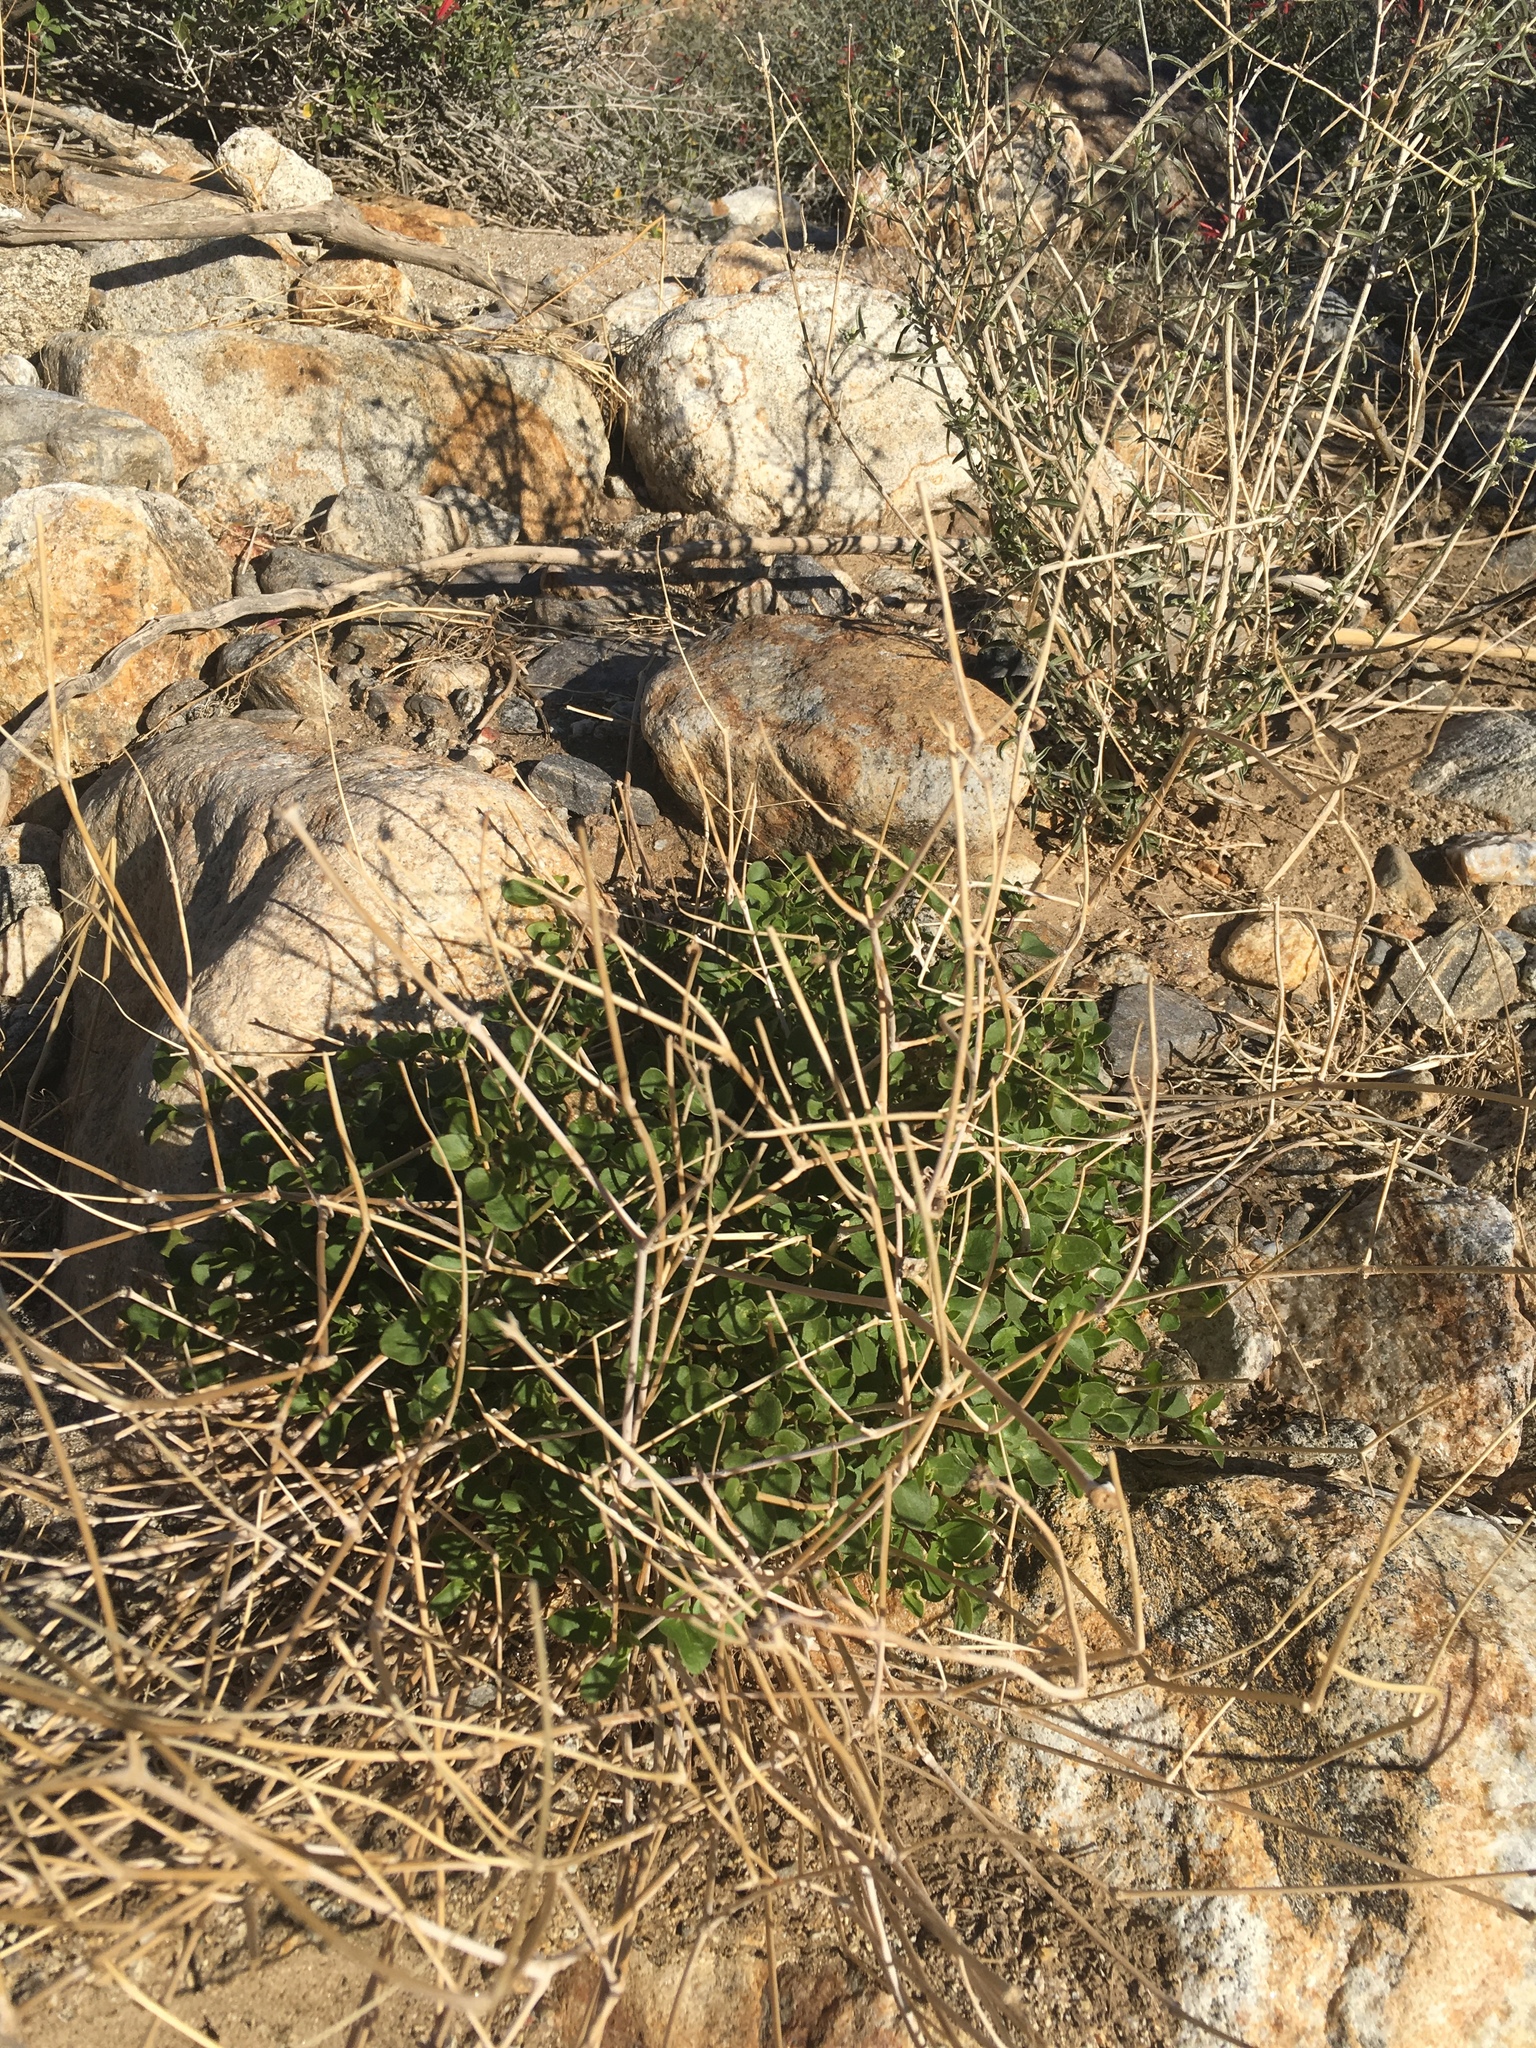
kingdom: Plantae
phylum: Tracheophyta
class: Magnoliopsida
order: Caryophyllales
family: Nyctaginaceae
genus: Mirabilis
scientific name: Mirabilis laevis
